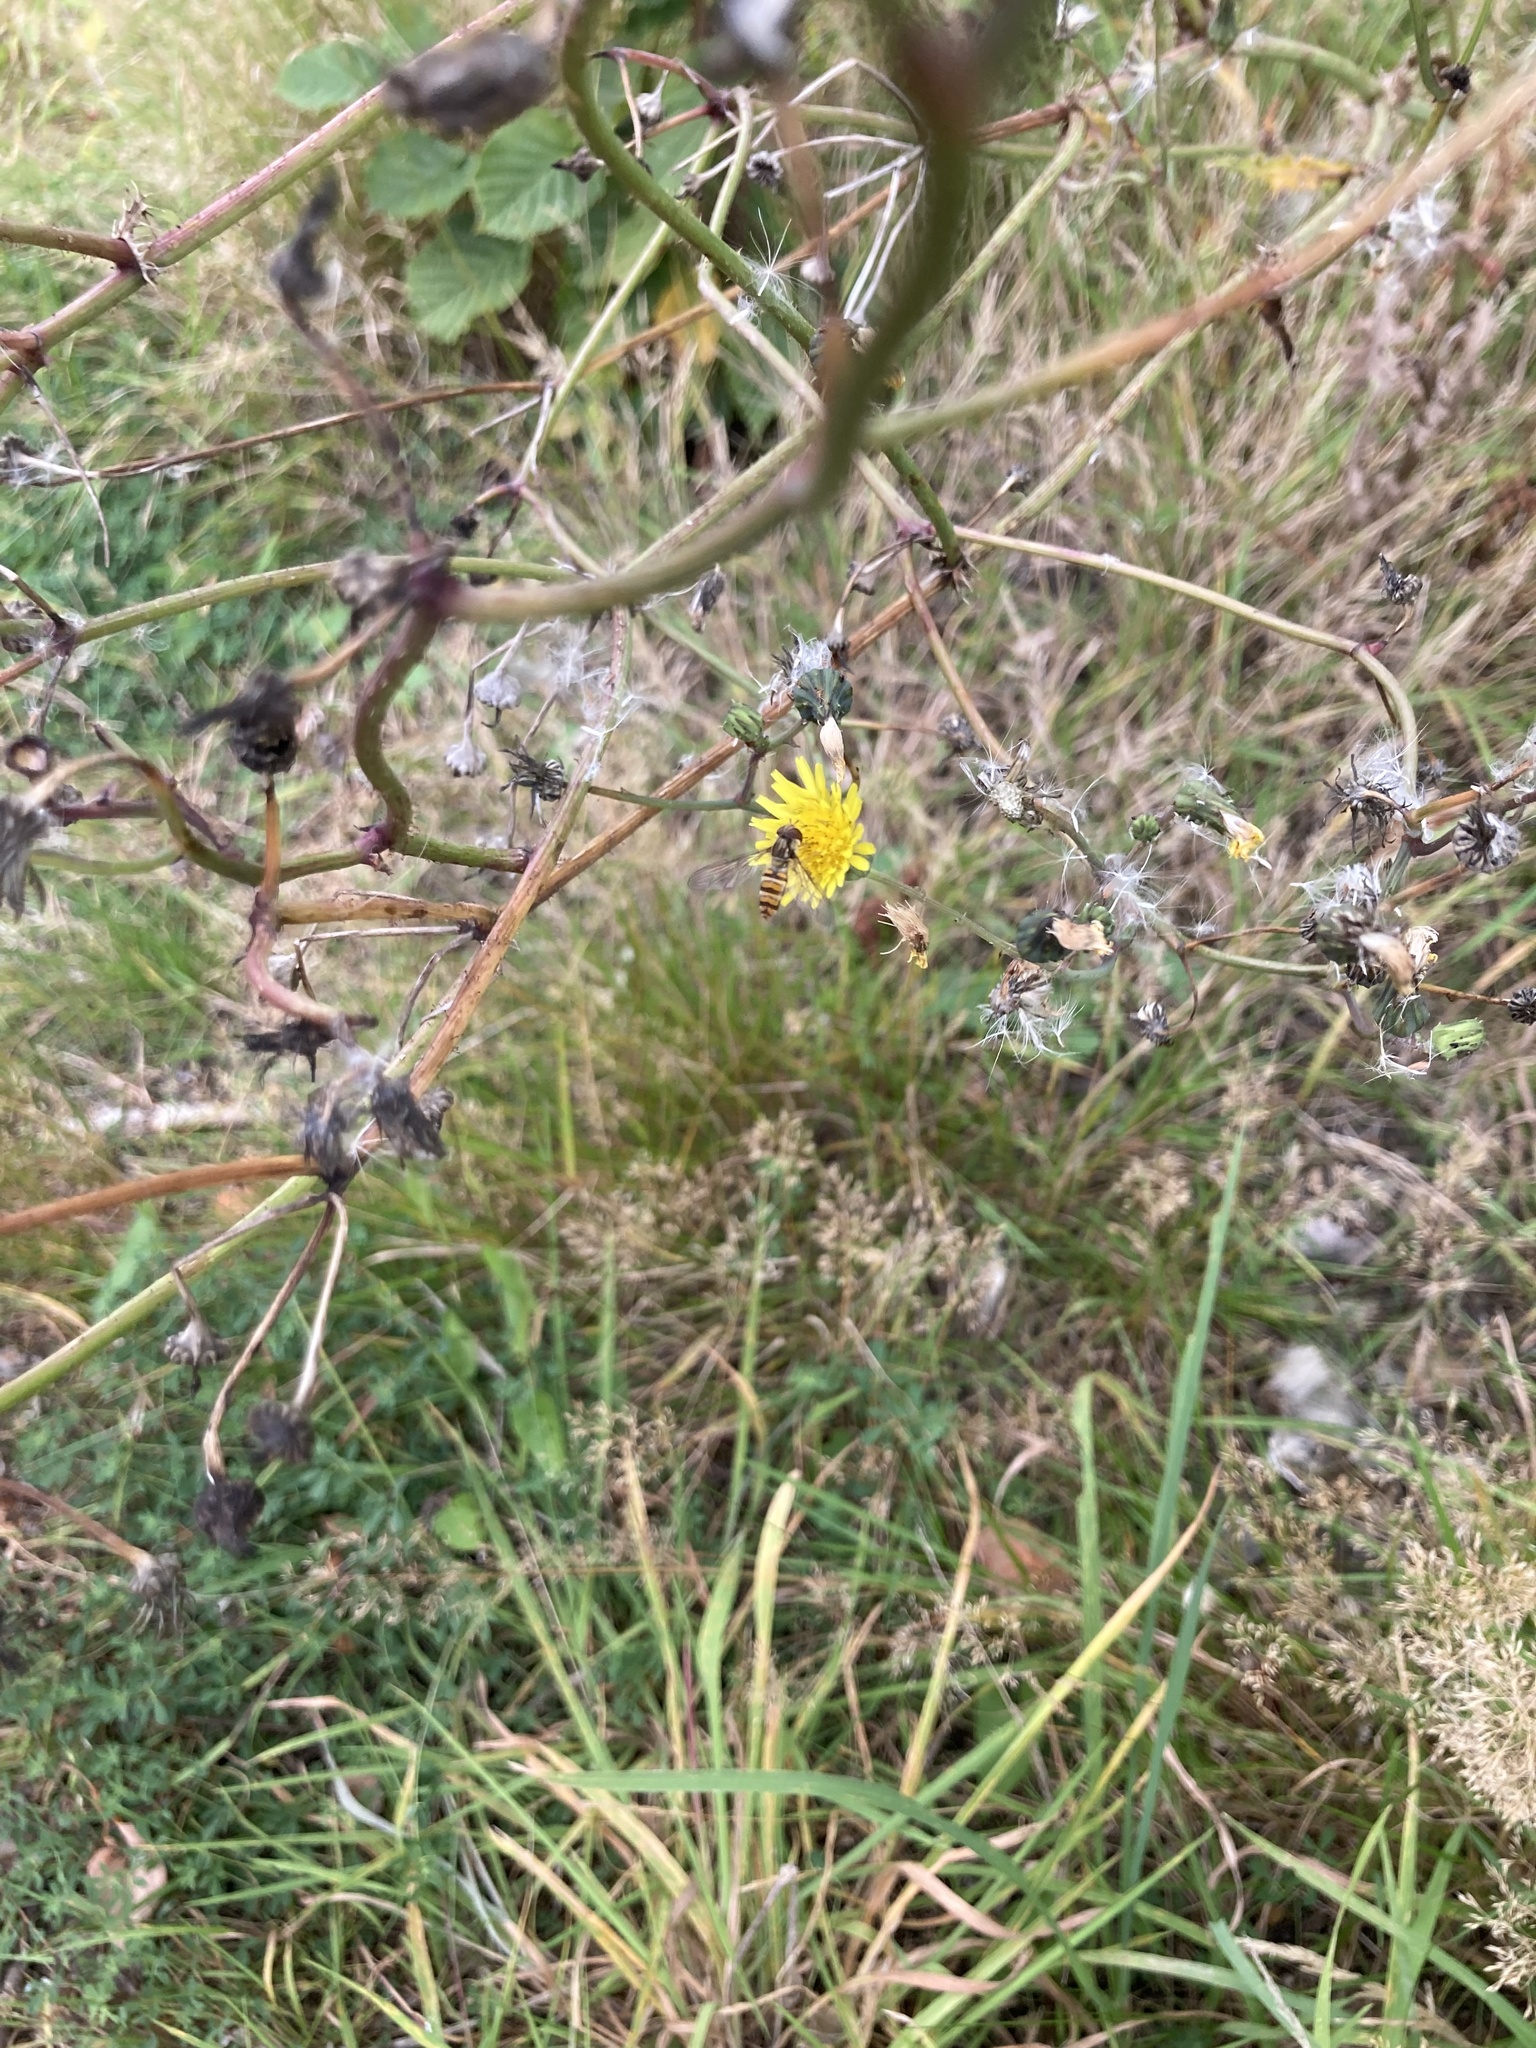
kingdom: Animalia
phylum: Arthropoda
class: Insecta
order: Diptera
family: Syrphidae
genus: Episyrphus
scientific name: Episyrphus balteatus
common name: Marmalade hoverfly
